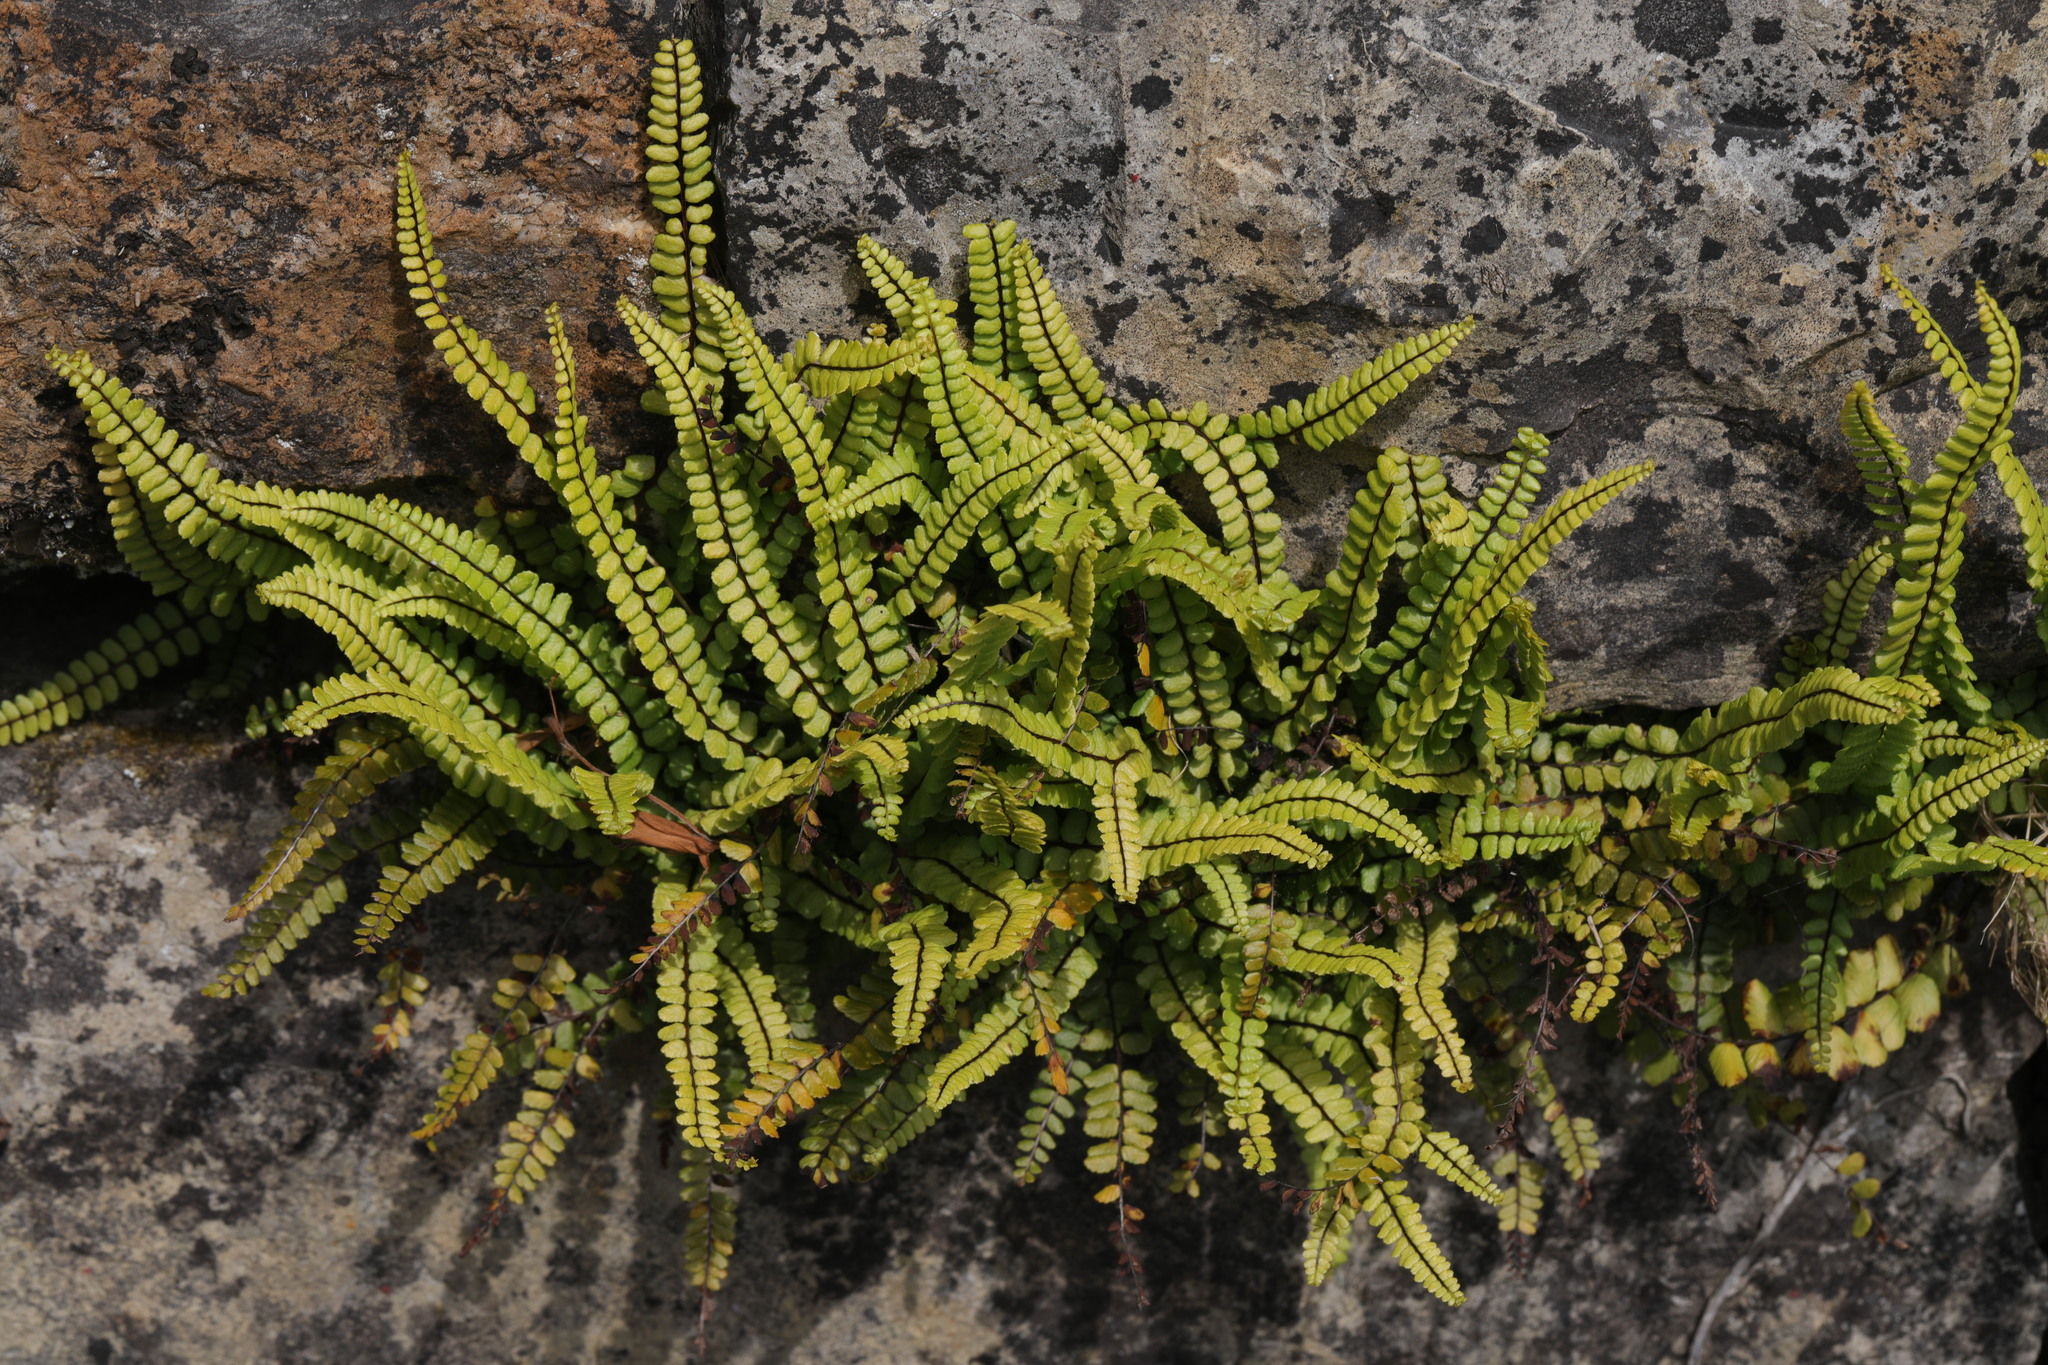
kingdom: Plantae
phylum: Tracheophyta
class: Polypodiopsida
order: Polypodiales
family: Aspleniaceae
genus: Asplenium
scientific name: Asplenium trichomanes
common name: Maidenhair spleenwort
